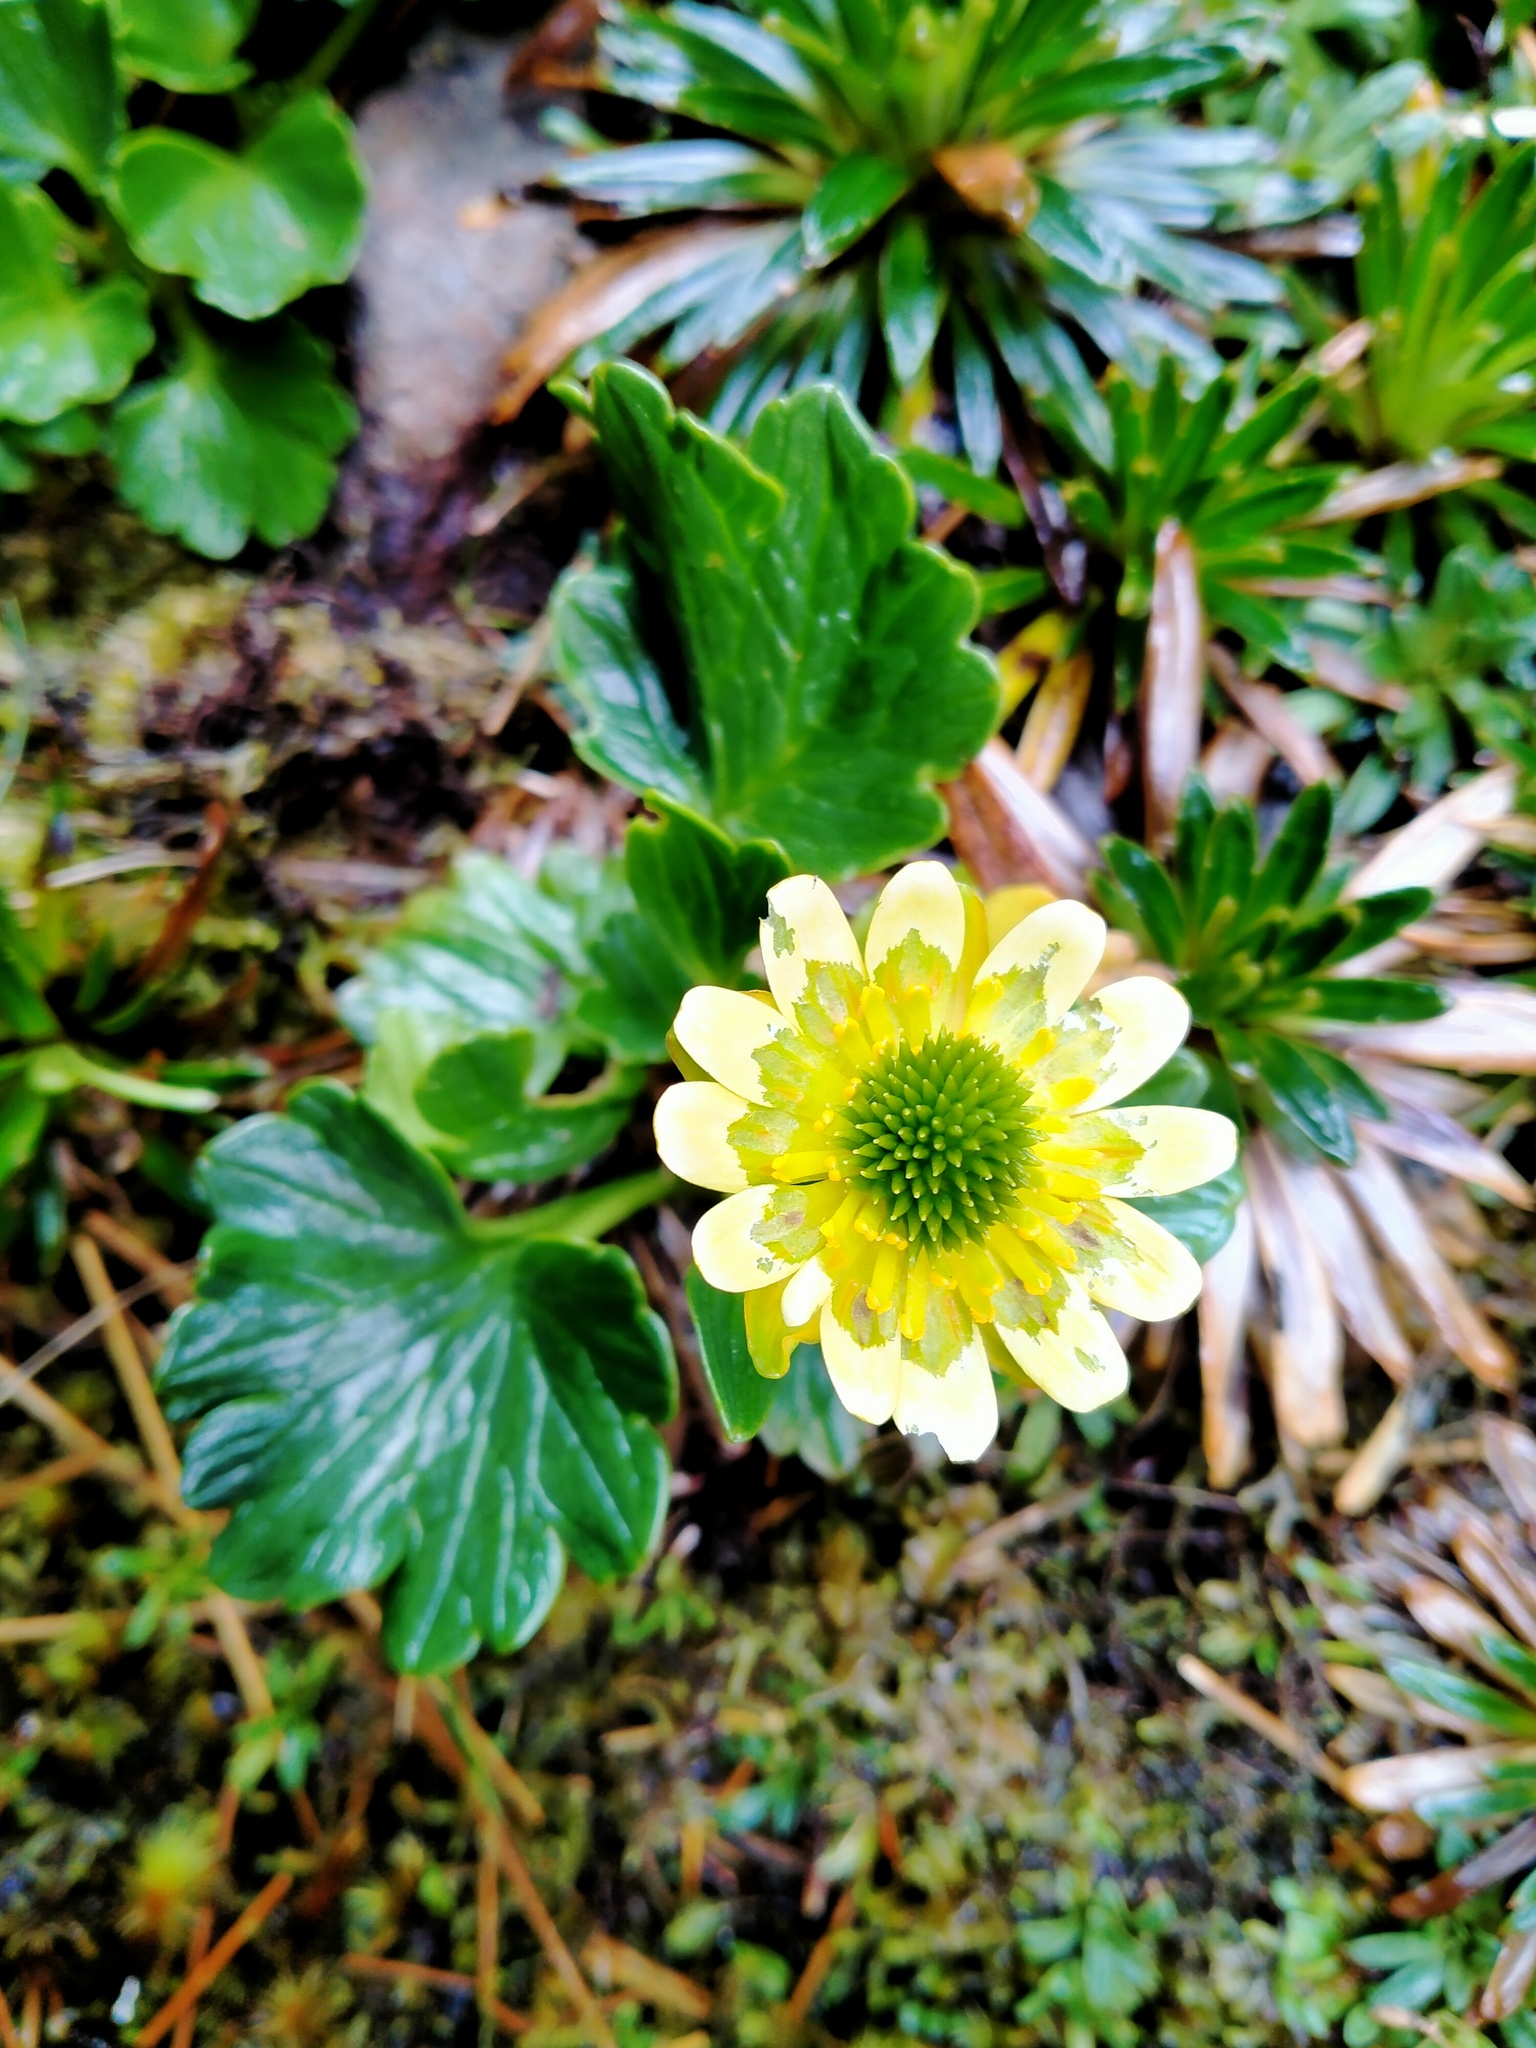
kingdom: Plantae
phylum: Tracheophyta
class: Magnoliopsida
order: Ranunculales
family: Ranunculaceae
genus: Ranunculus
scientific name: Ranunculus pinguis
